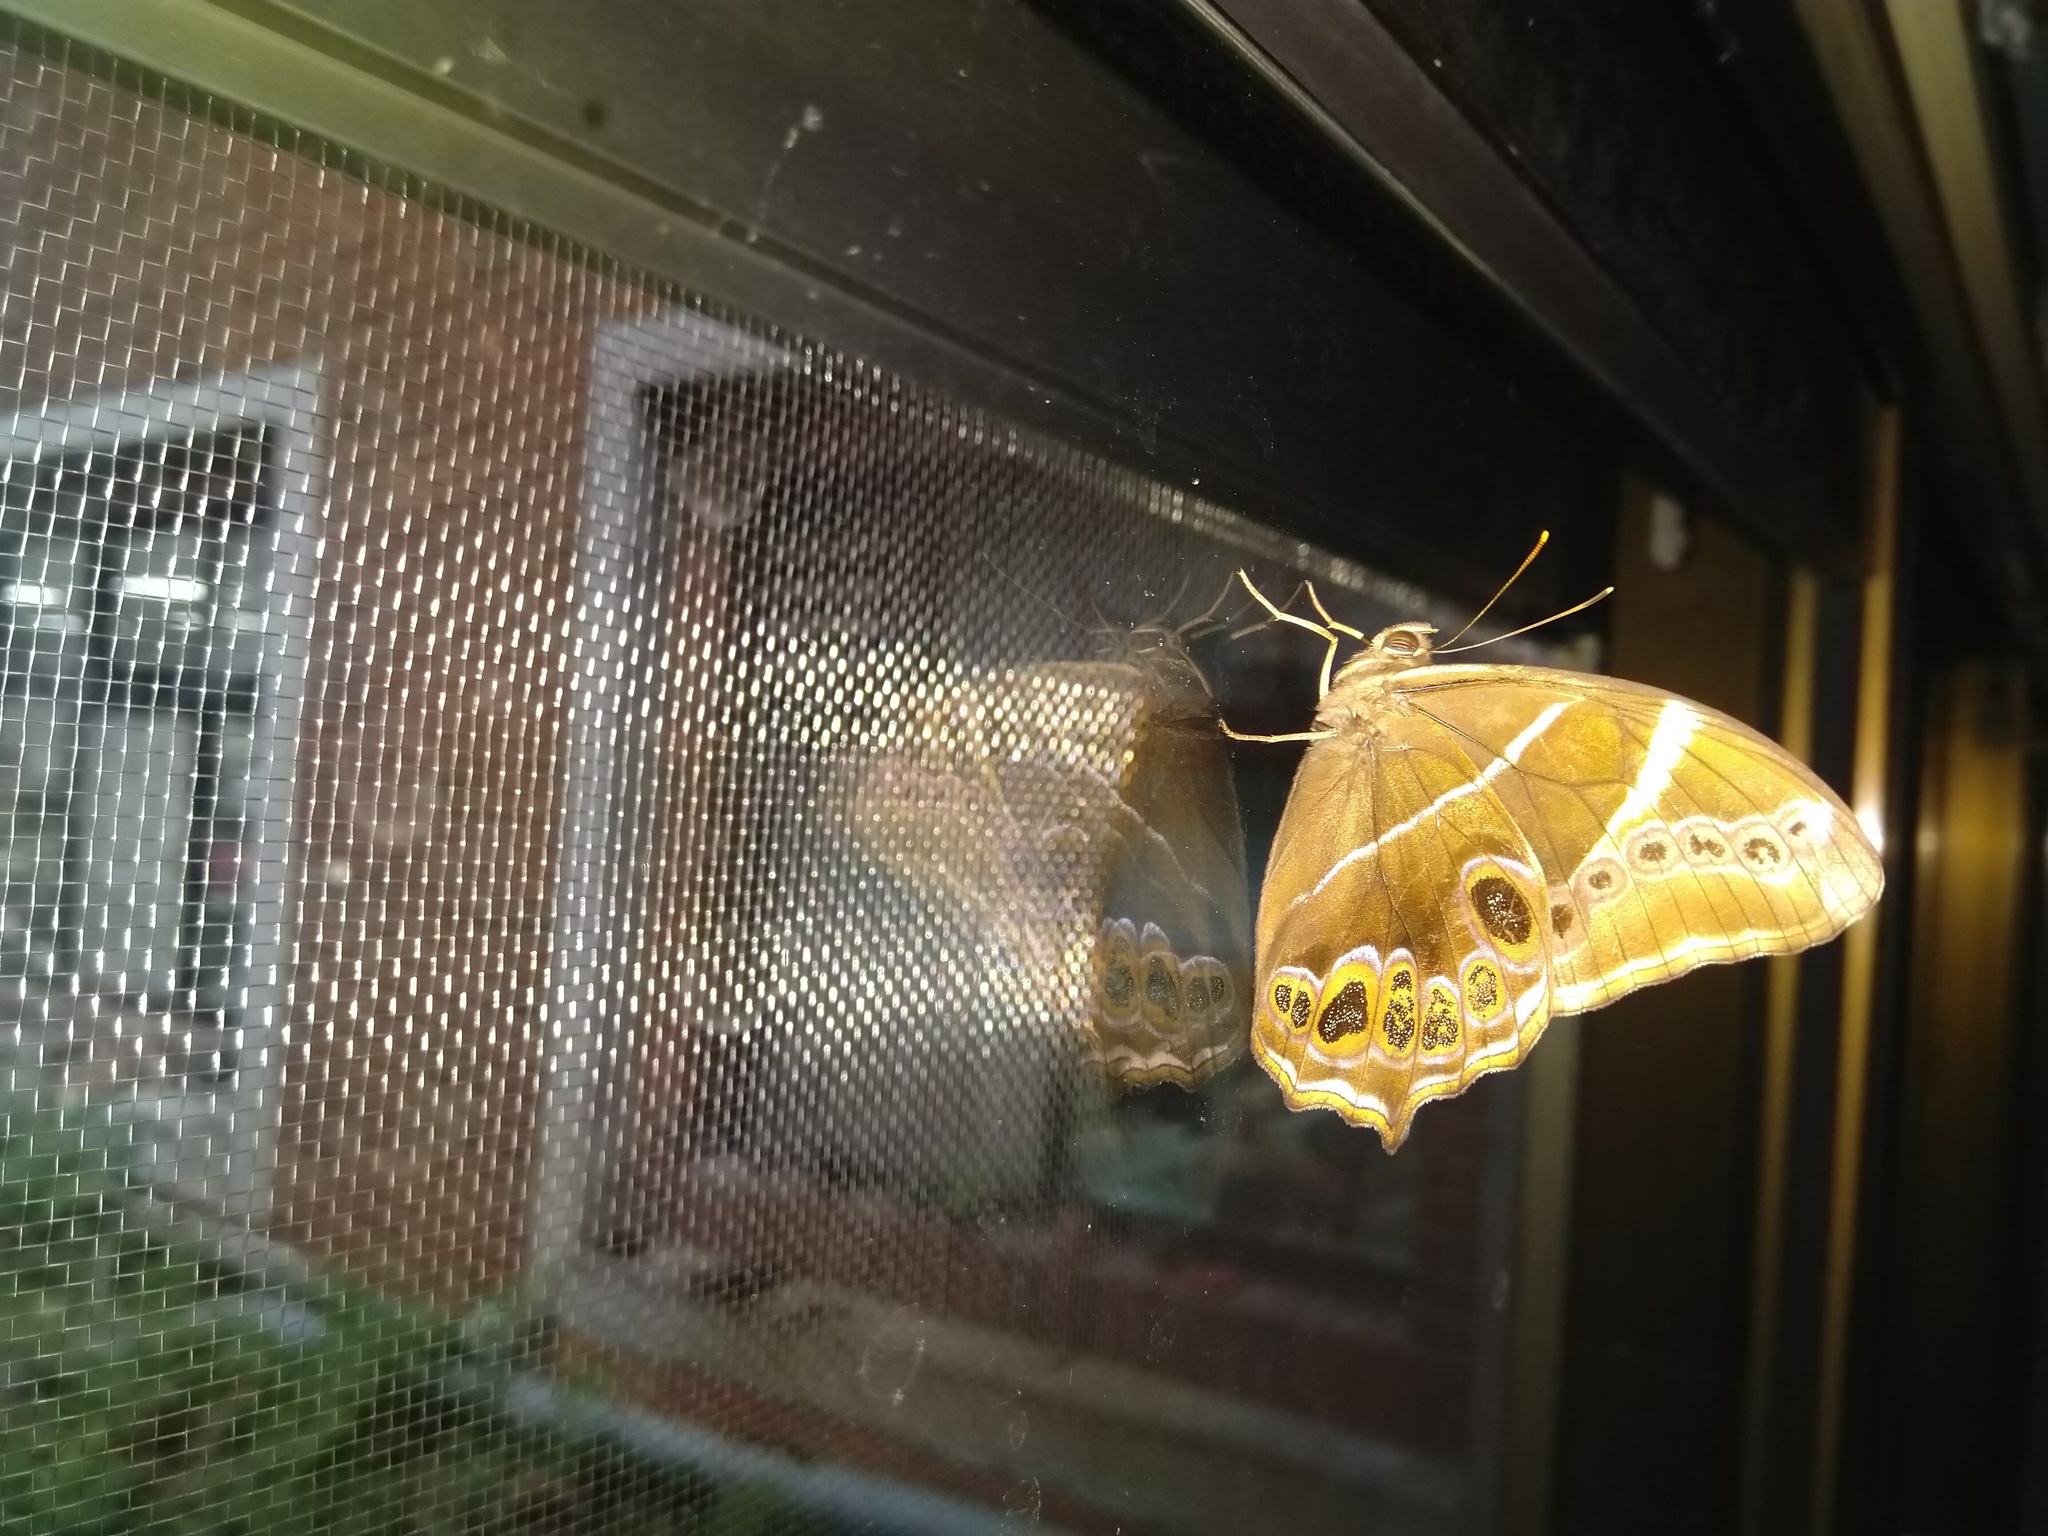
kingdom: Animalia
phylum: Arthropoda
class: Insecta
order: Lepidoptera
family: Nymphalidae
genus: Lethe
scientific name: Lethe europa
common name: Bamboo treebrown
